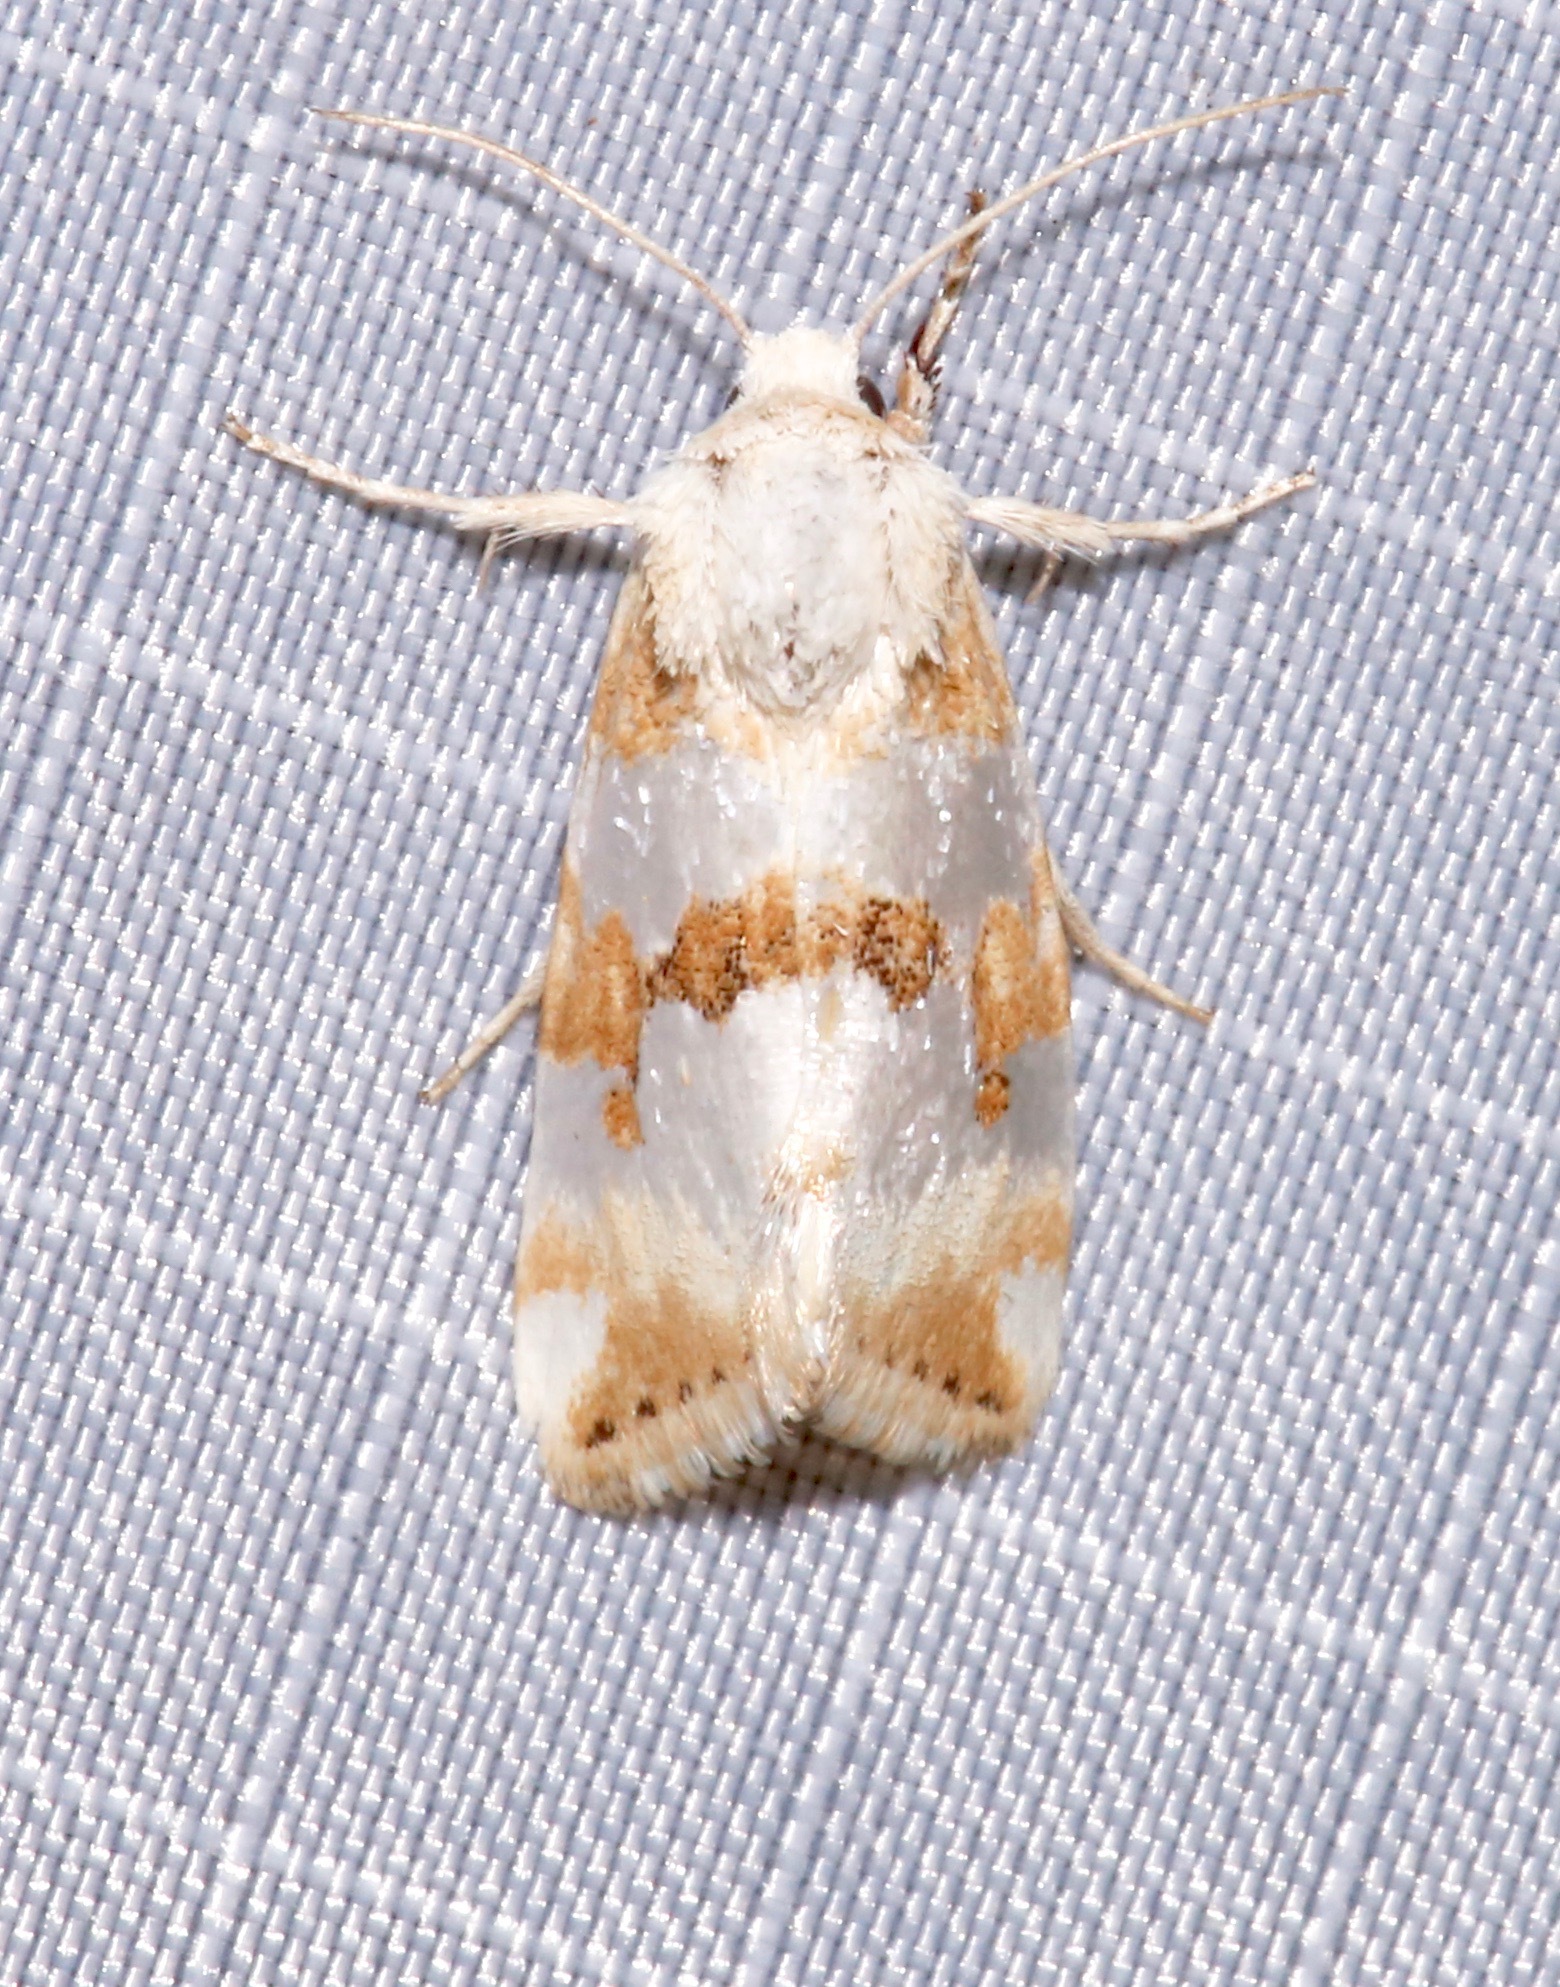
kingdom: Animalia
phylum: Arthropoda
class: Insecta
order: Lepidoptera
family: Noctuidae
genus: Schinia
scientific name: Schinia alencis
